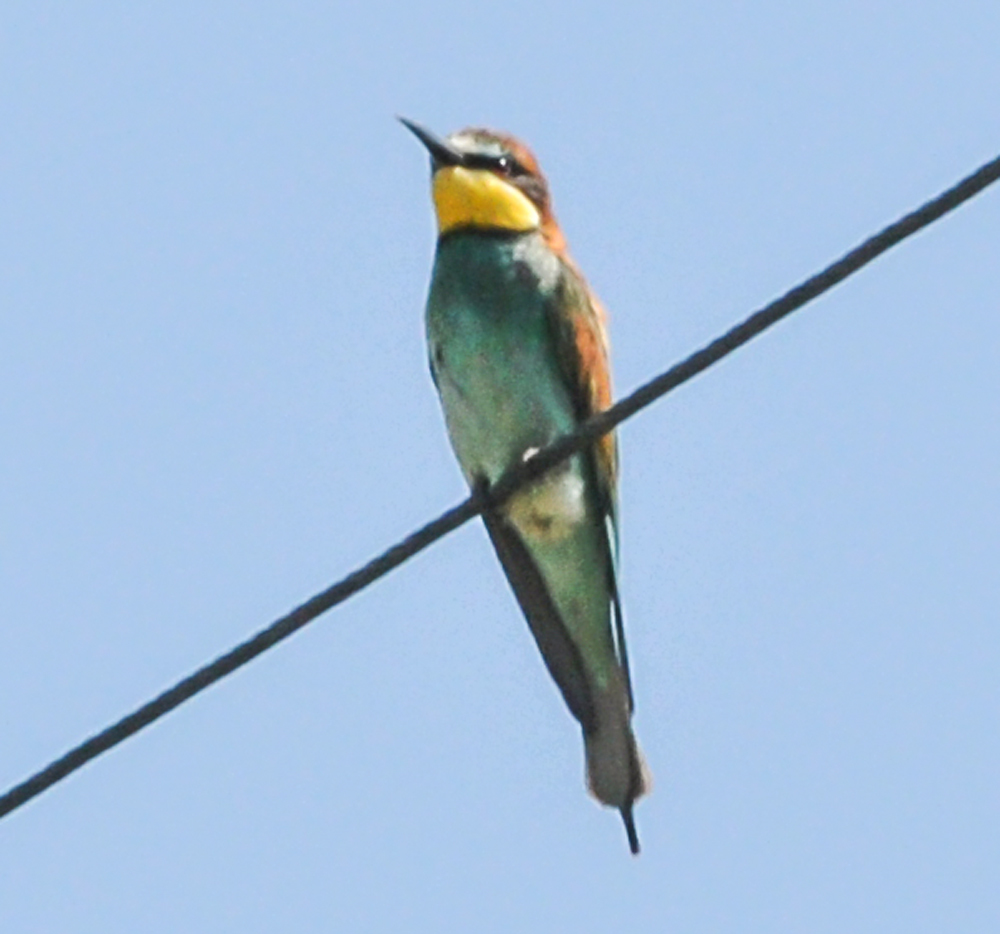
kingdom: Animalia
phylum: Chordata
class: Aves
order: Coraciiformes
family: Meropidae
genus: Merops
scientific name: Merops apiaster
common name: European bee-eater
